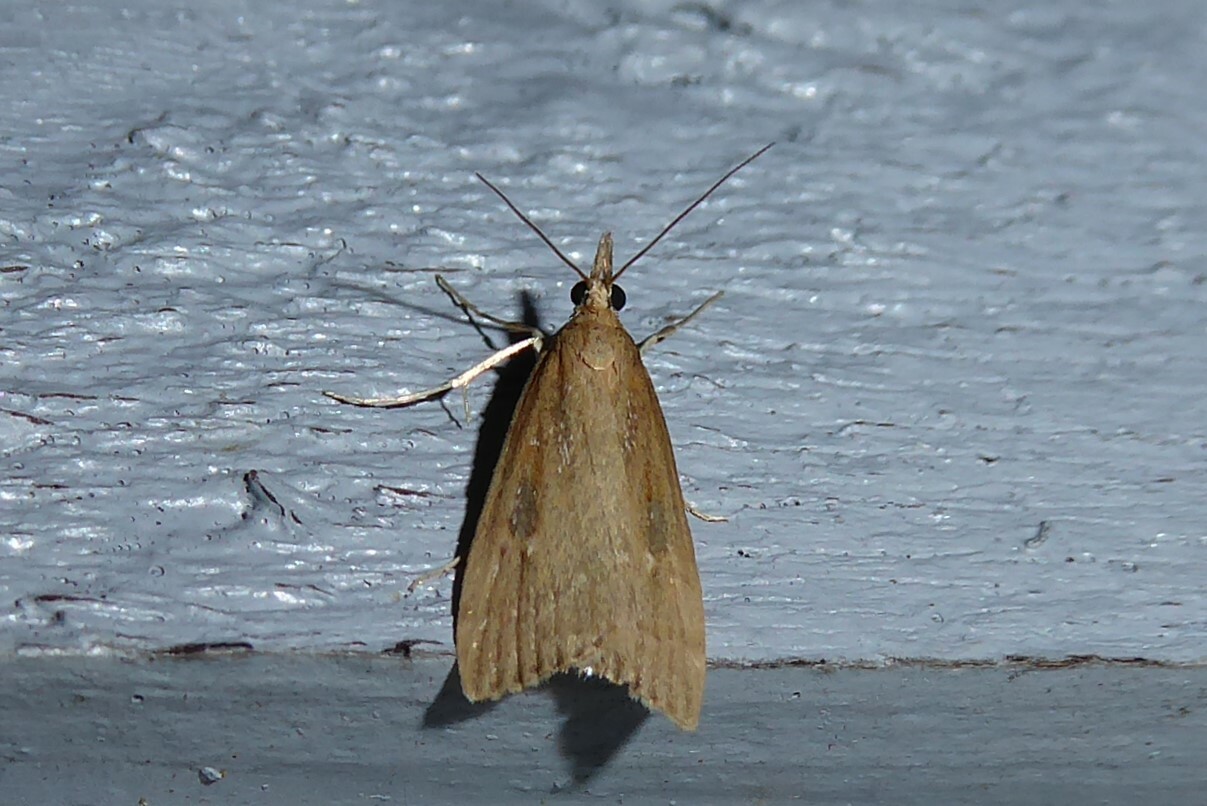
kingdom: Animalia
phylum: Arthropoda
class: Insecta
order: Lepidoptera
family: Crambidae
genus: Eudonia
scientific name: Eudonia octophora
